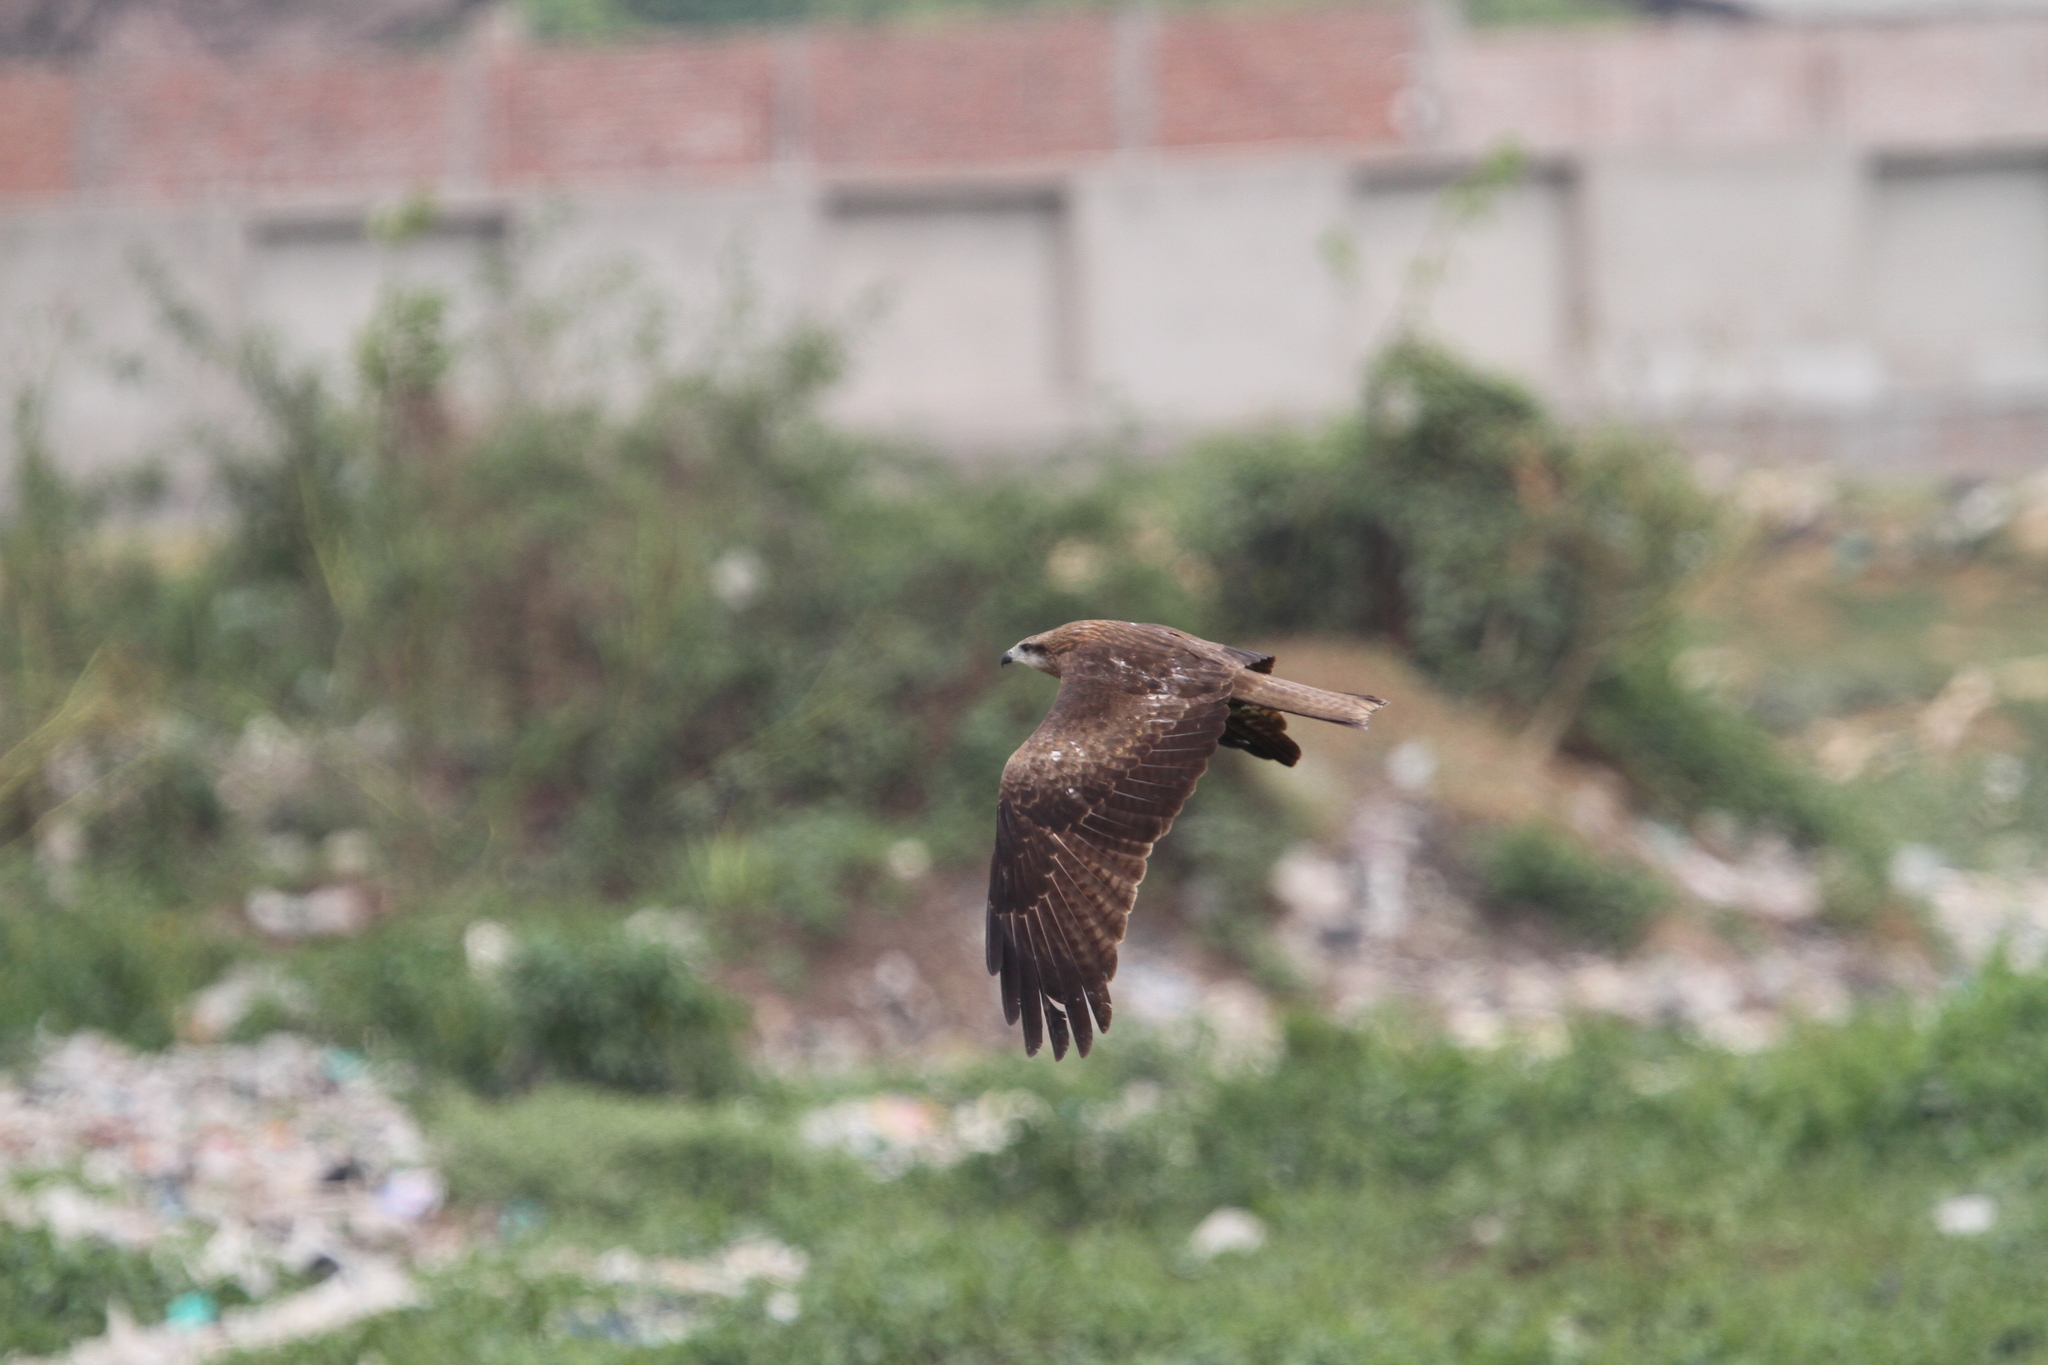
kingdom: Animalia
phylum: Chordata
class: Aves
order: Accipitriformes
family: Accipitridae
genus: Milvus
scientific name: Milvus migrans
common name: Black kite
